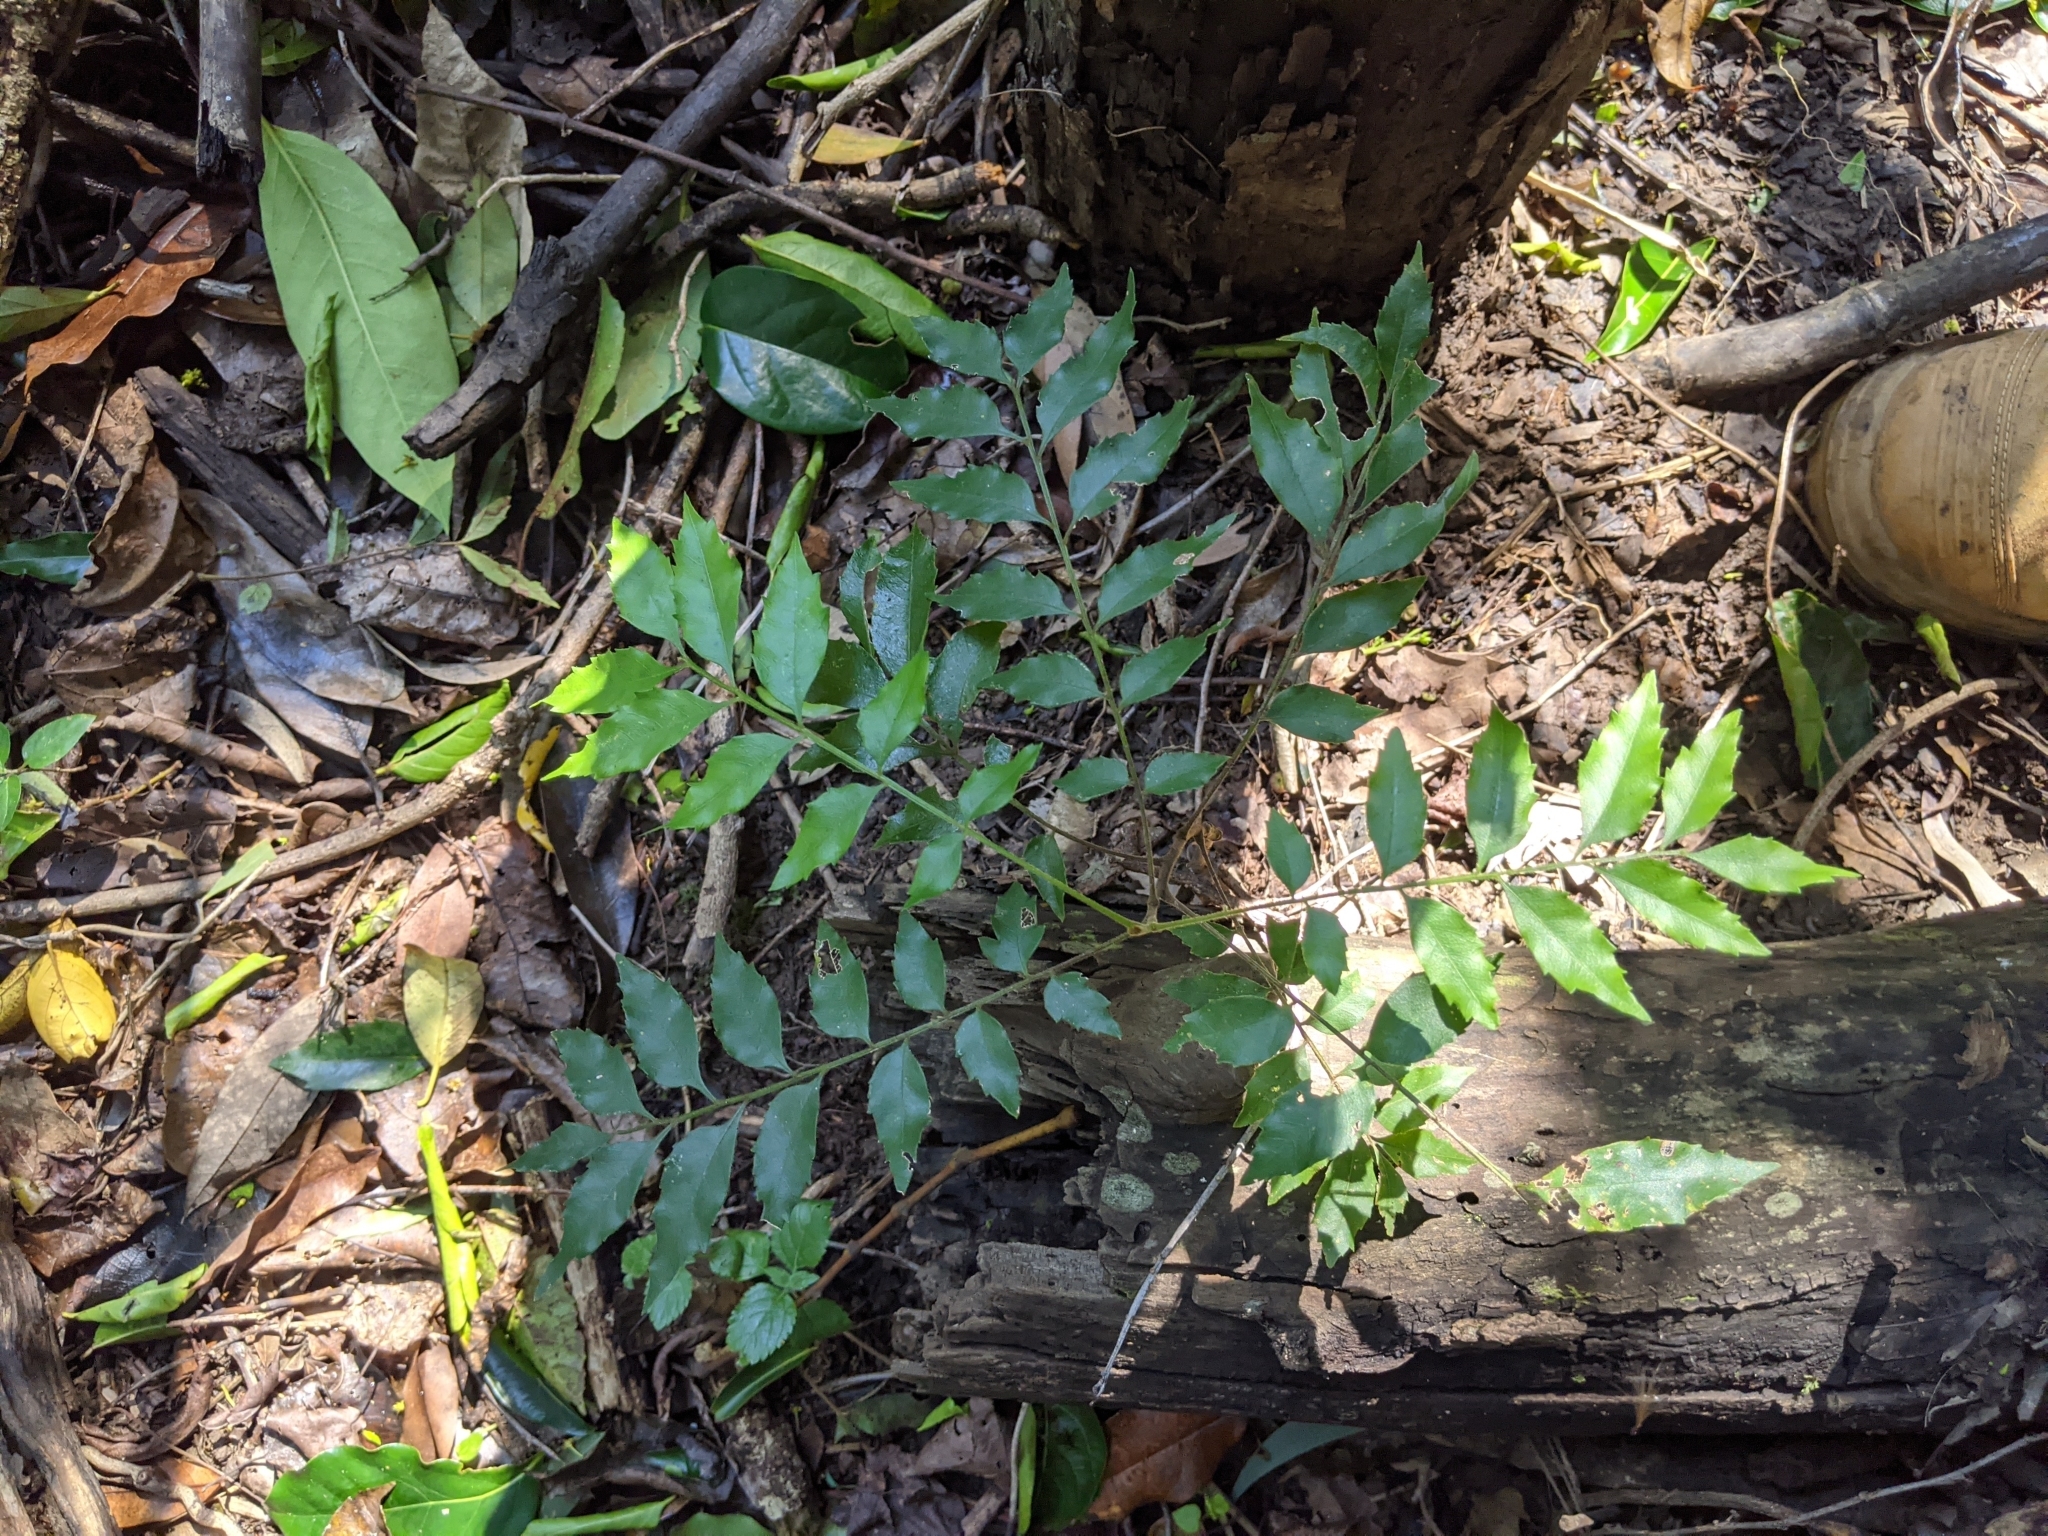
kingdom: Plantae
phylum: Tracheophyta
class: Magnoliopsida
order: Sapindales
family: Sapindaceae
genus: Jagera
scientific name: Jagera pseudorhus
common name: Fern-leaf-tamarind
